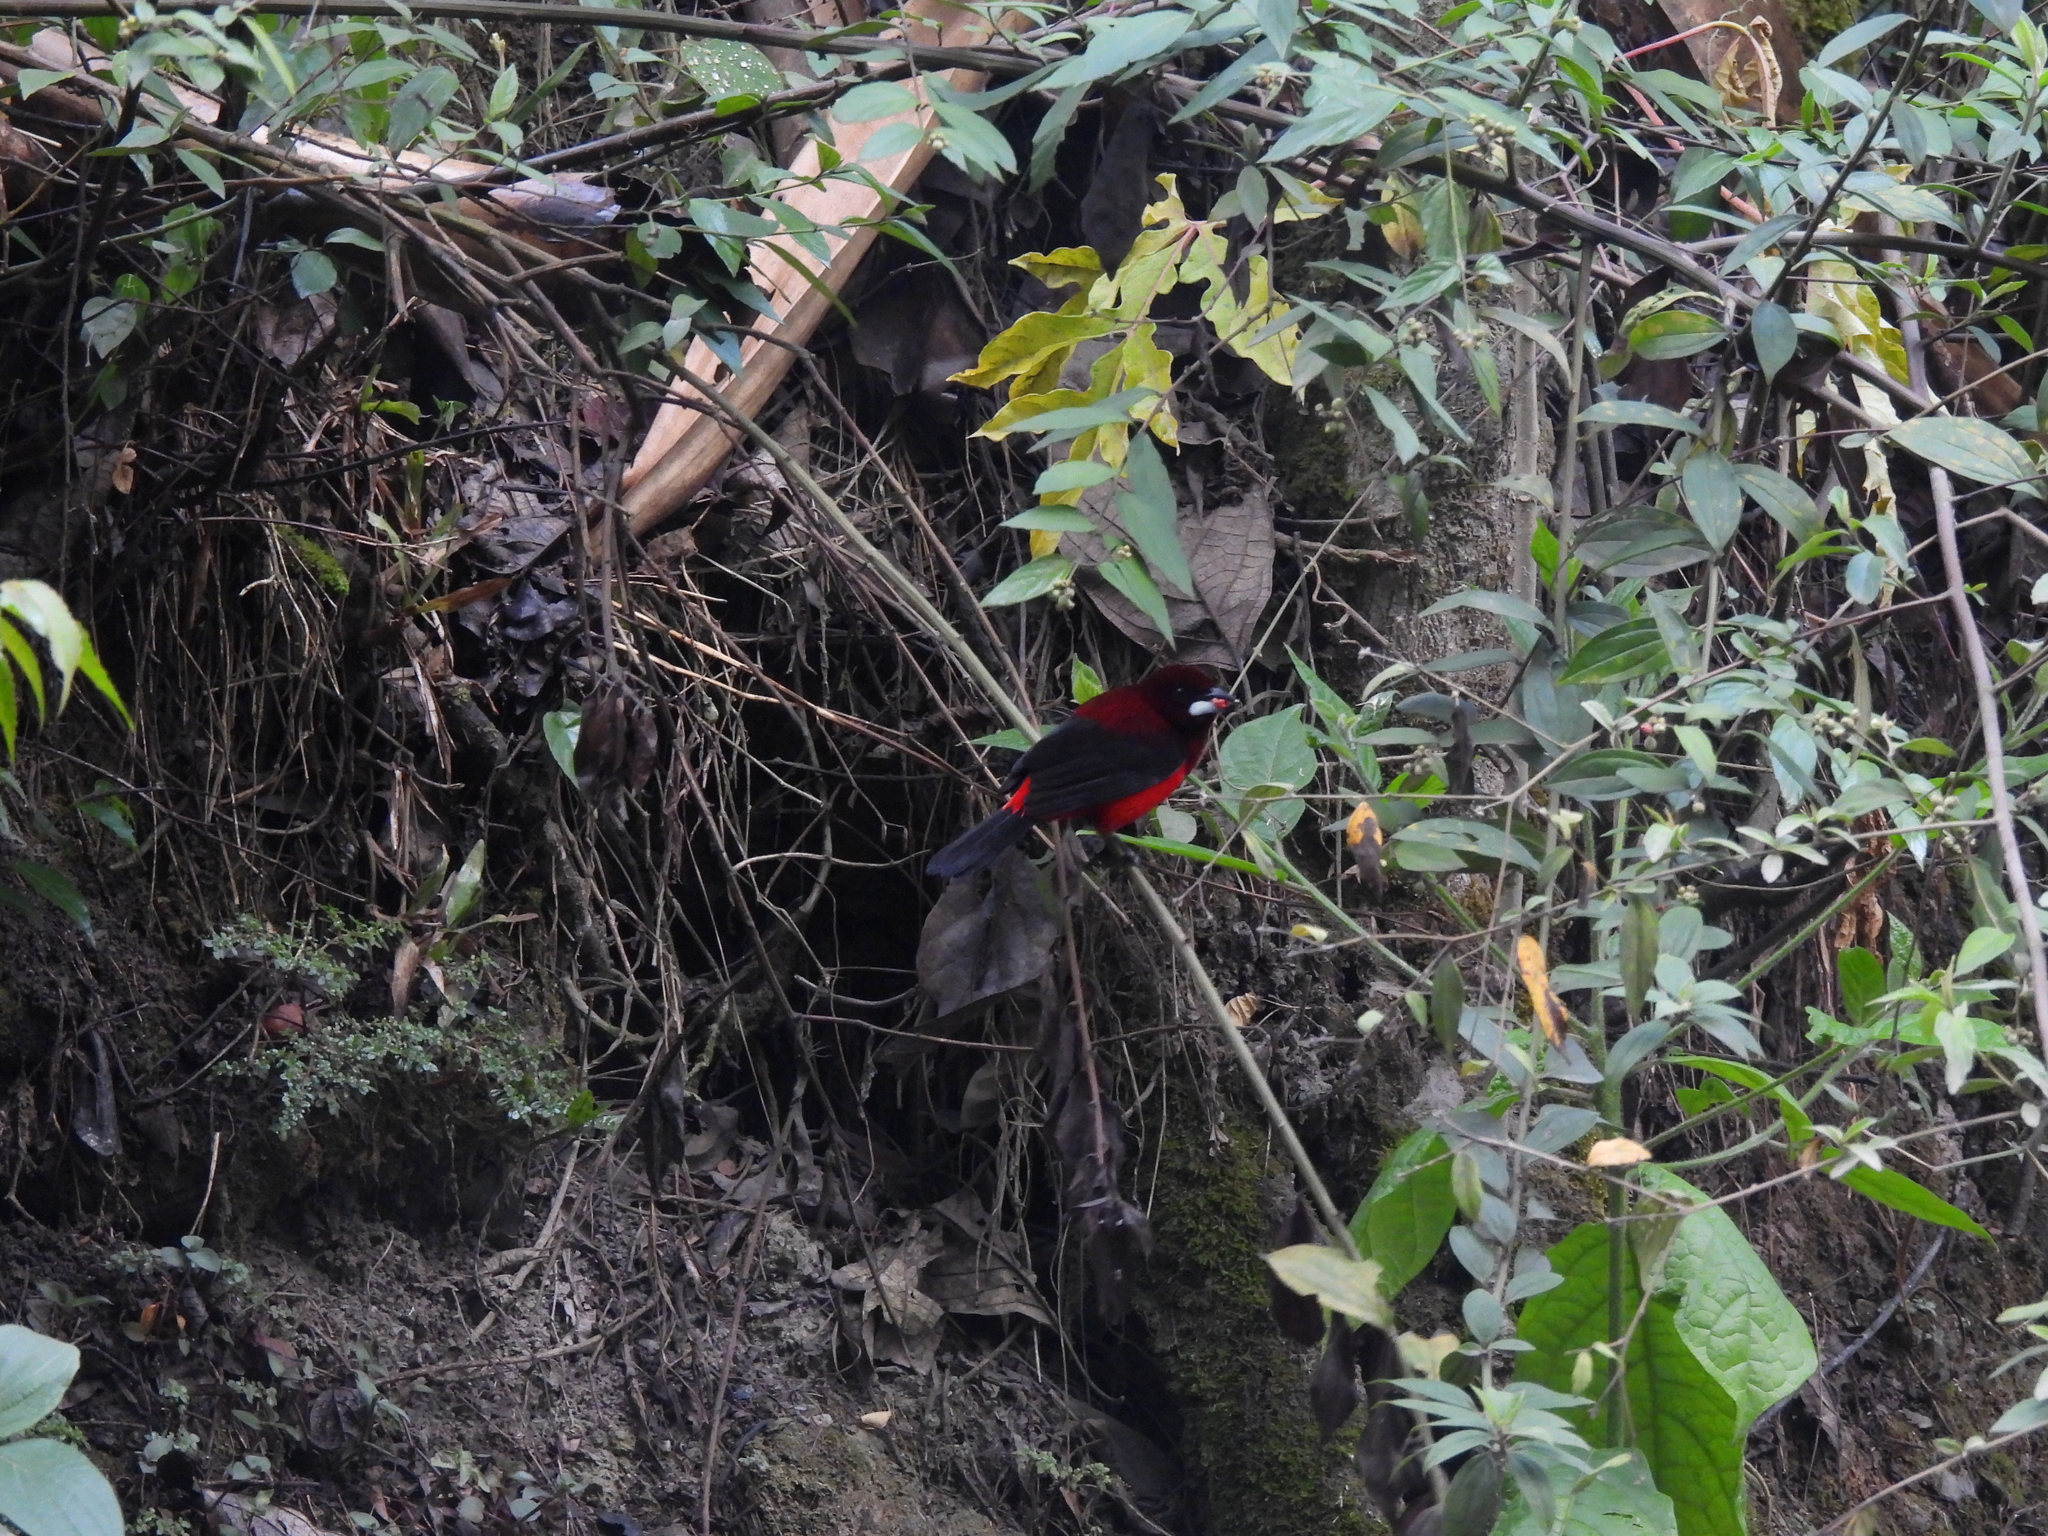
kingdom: Animalia
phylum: Chordata
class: Aves
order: Passeriformes
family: Thraupidae
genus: Ramphocelus
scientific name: Ramphocelus dimidiatus
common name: Crimson-backed tanager
